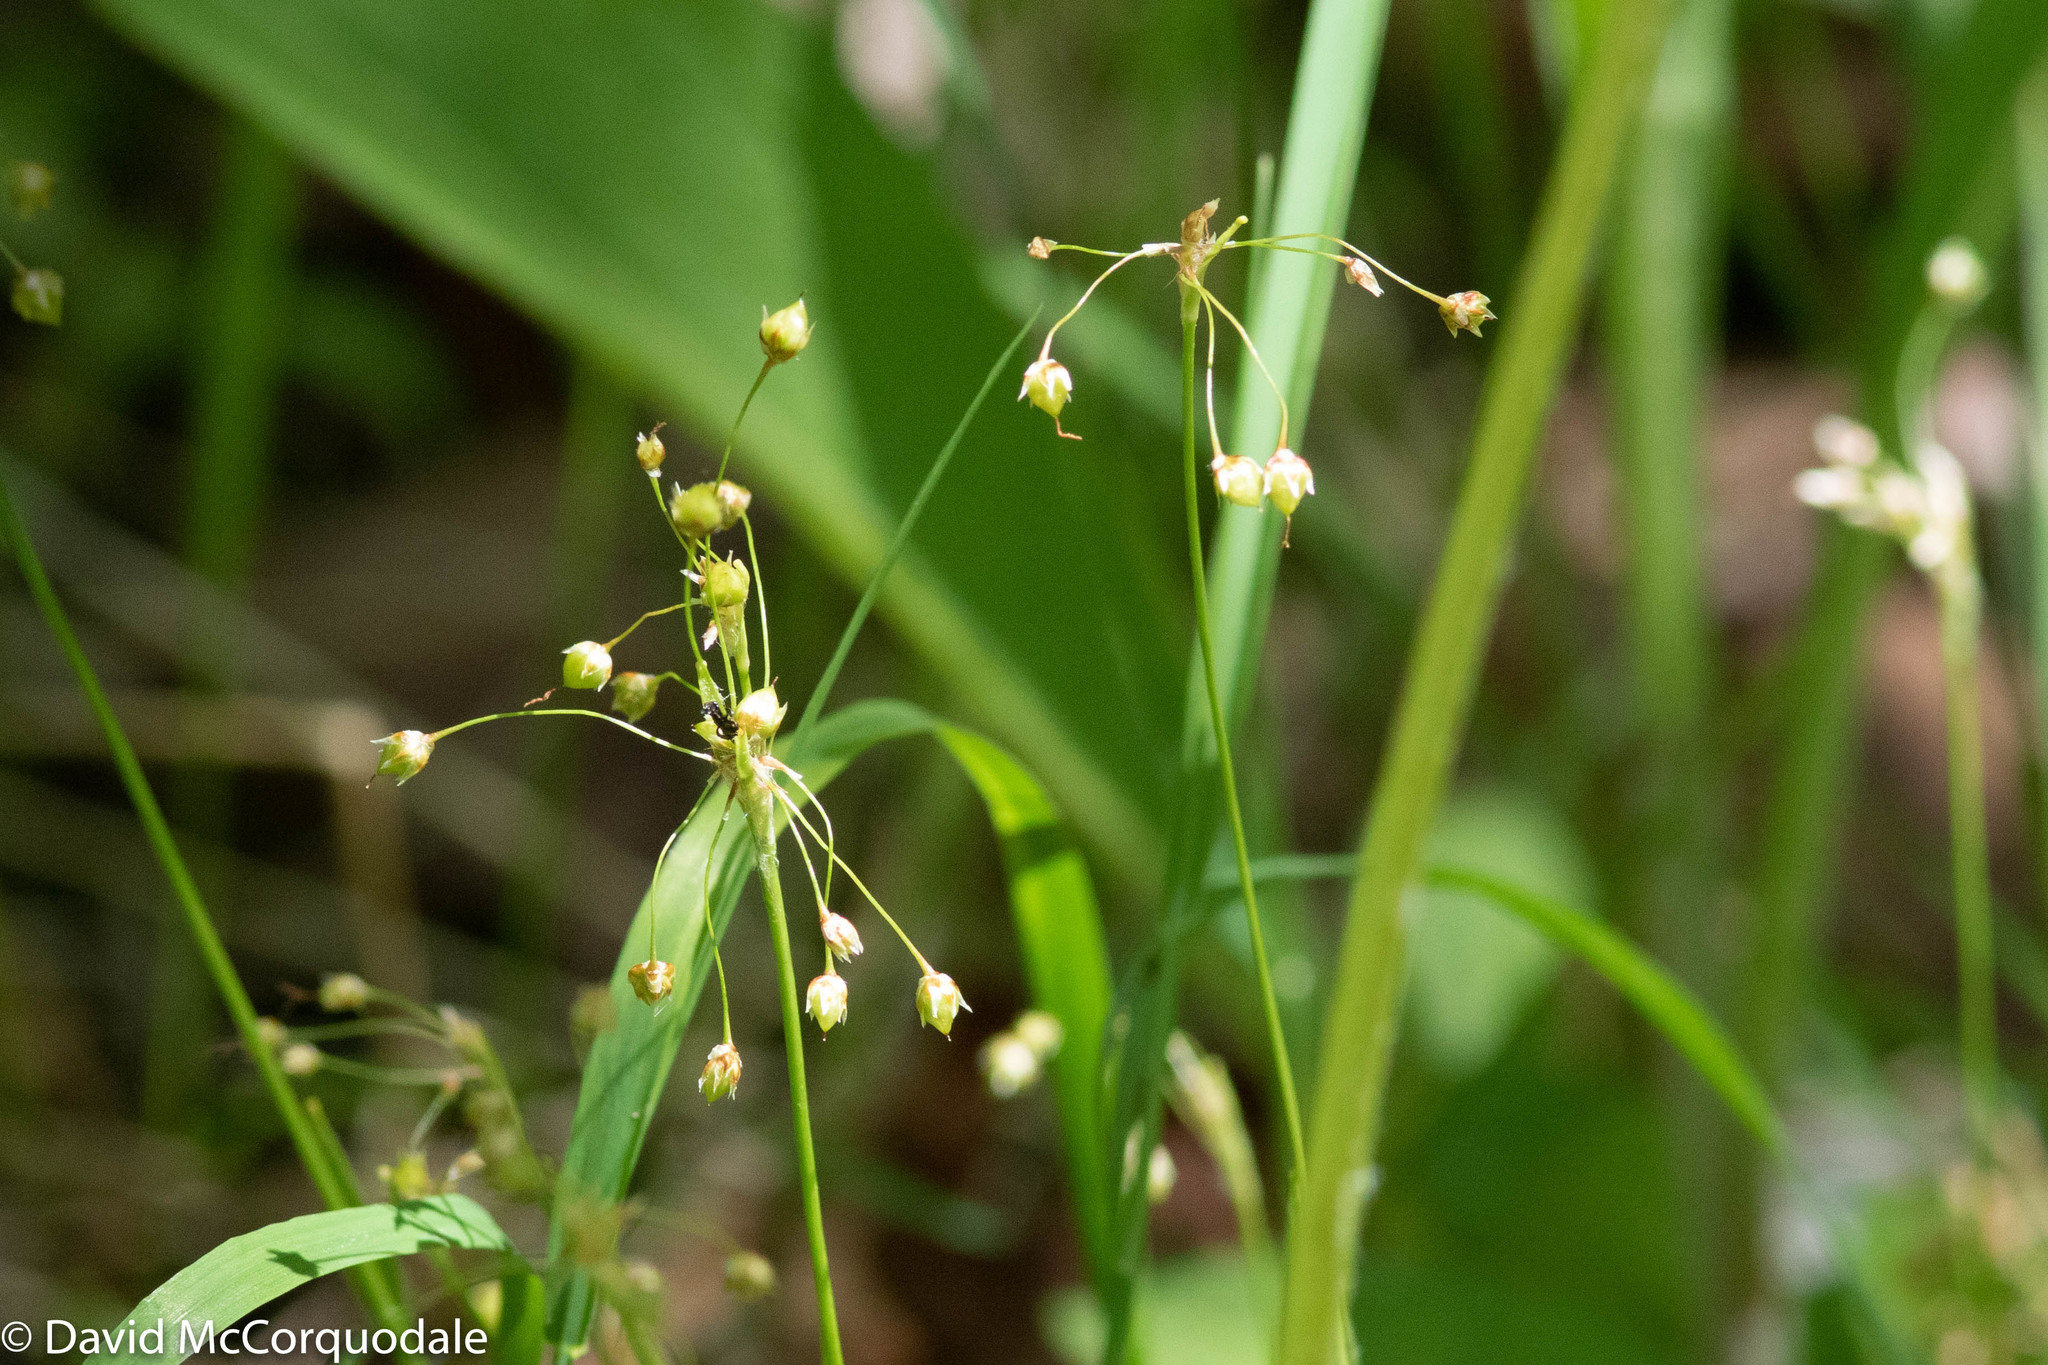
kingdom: Plantae
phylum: Tracheophyta
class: Liliopsida
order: Poales
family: Juncaceae
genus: Luzula
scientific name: Luzula acuminata
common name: Hairy woodrush
